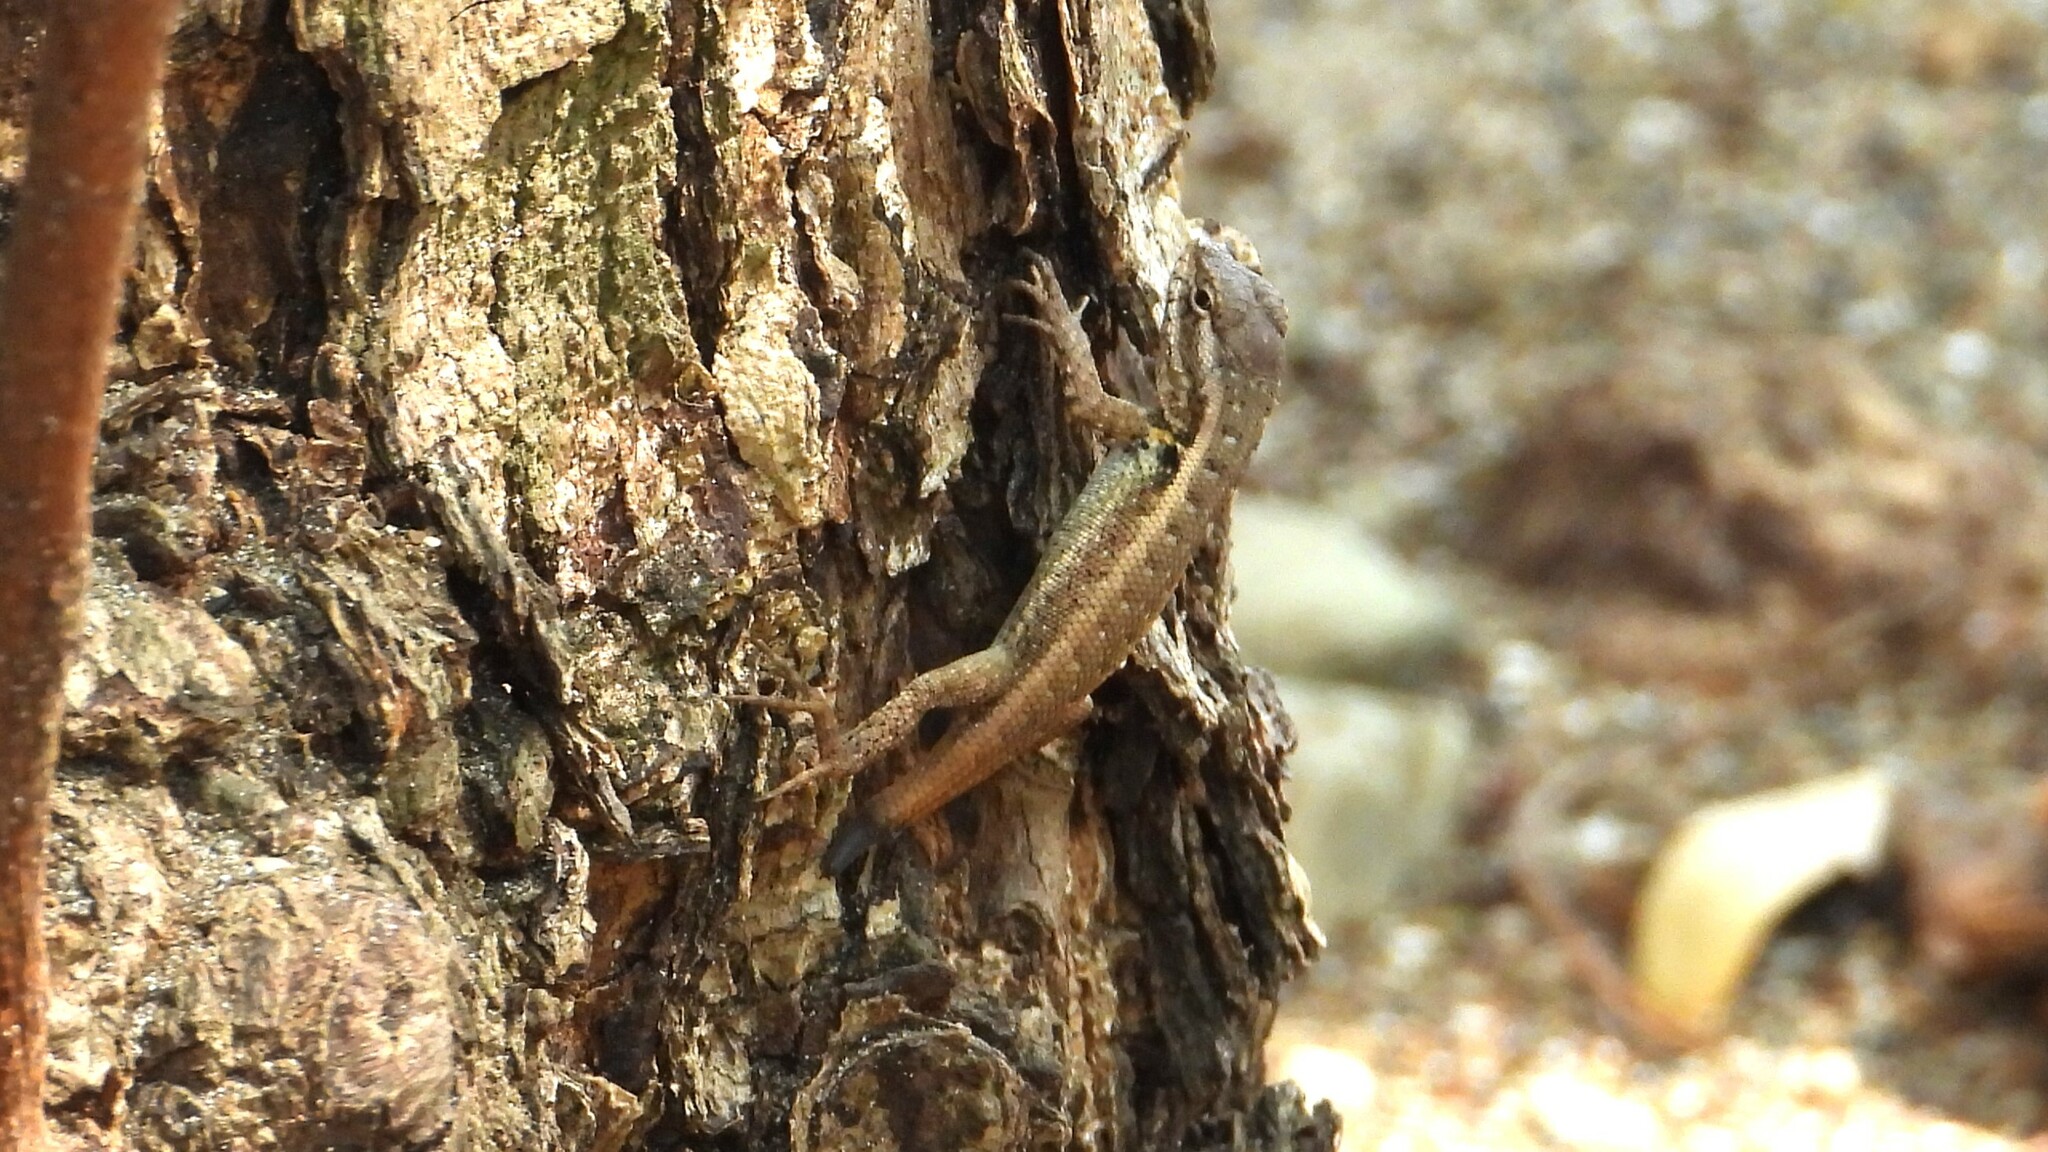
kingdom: Animalia
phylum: Chordata
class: Squamata
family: Phrynosomatidae
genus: Sceloporus
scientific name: Sceloporus variabilis
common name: Rosebelly lizard
